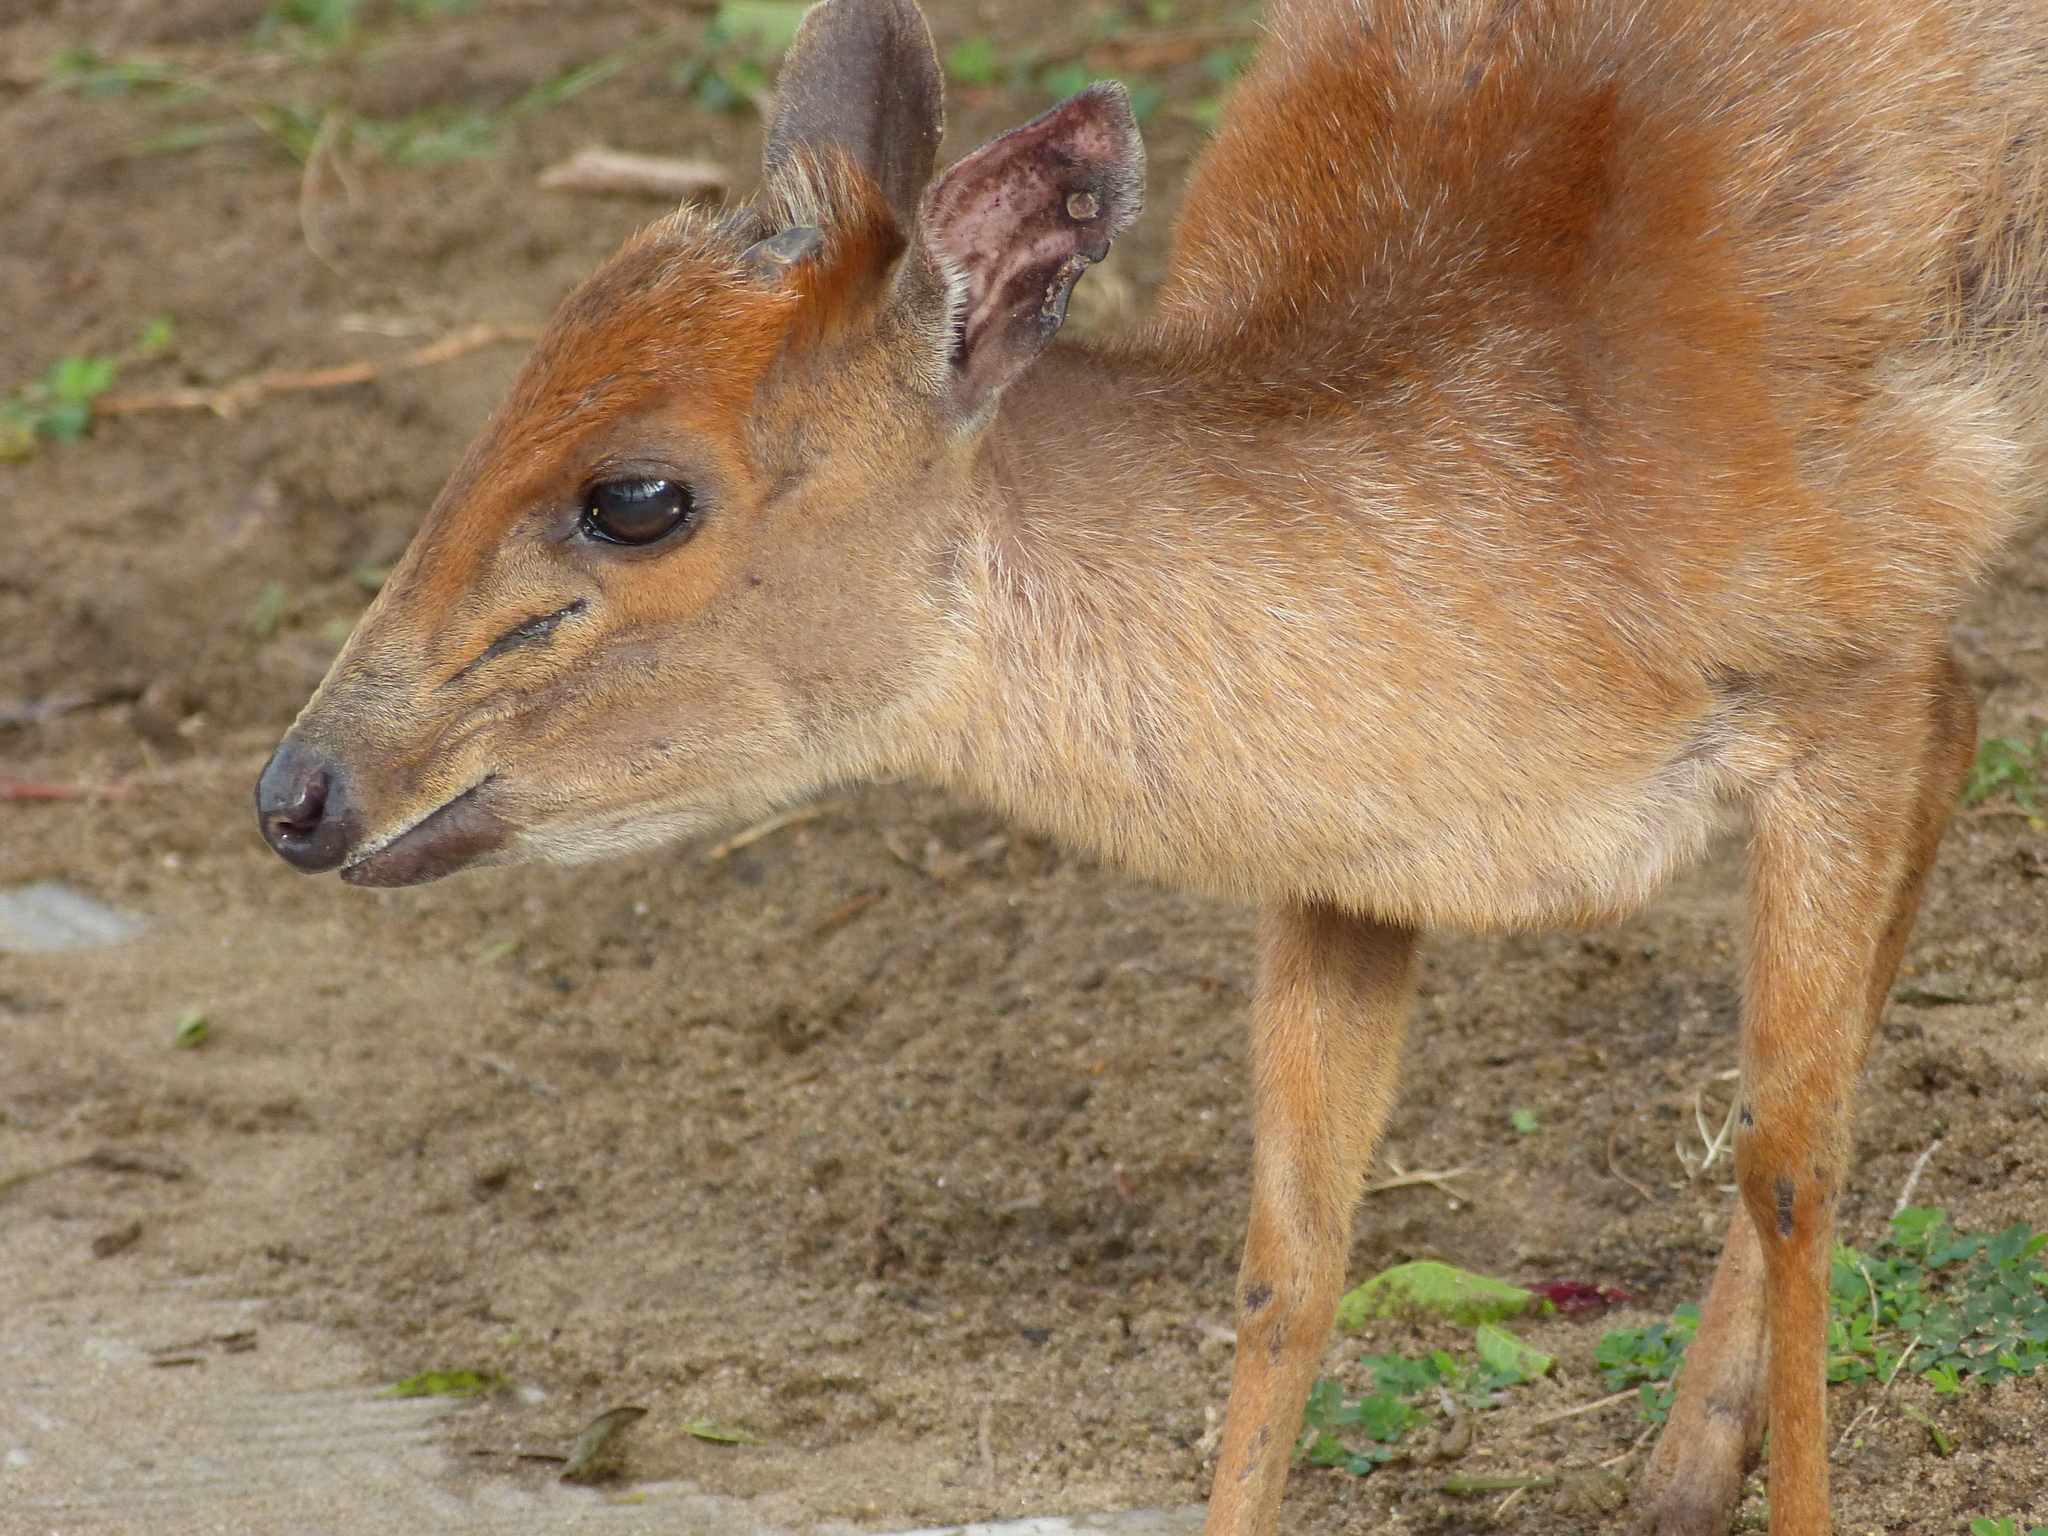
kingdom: Animalia
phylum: Chordata
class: Mammalia
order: Artiodactyla
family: Bovidae
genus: Cephalophus
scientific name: Cephalophus natalensis
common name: Red duiker
